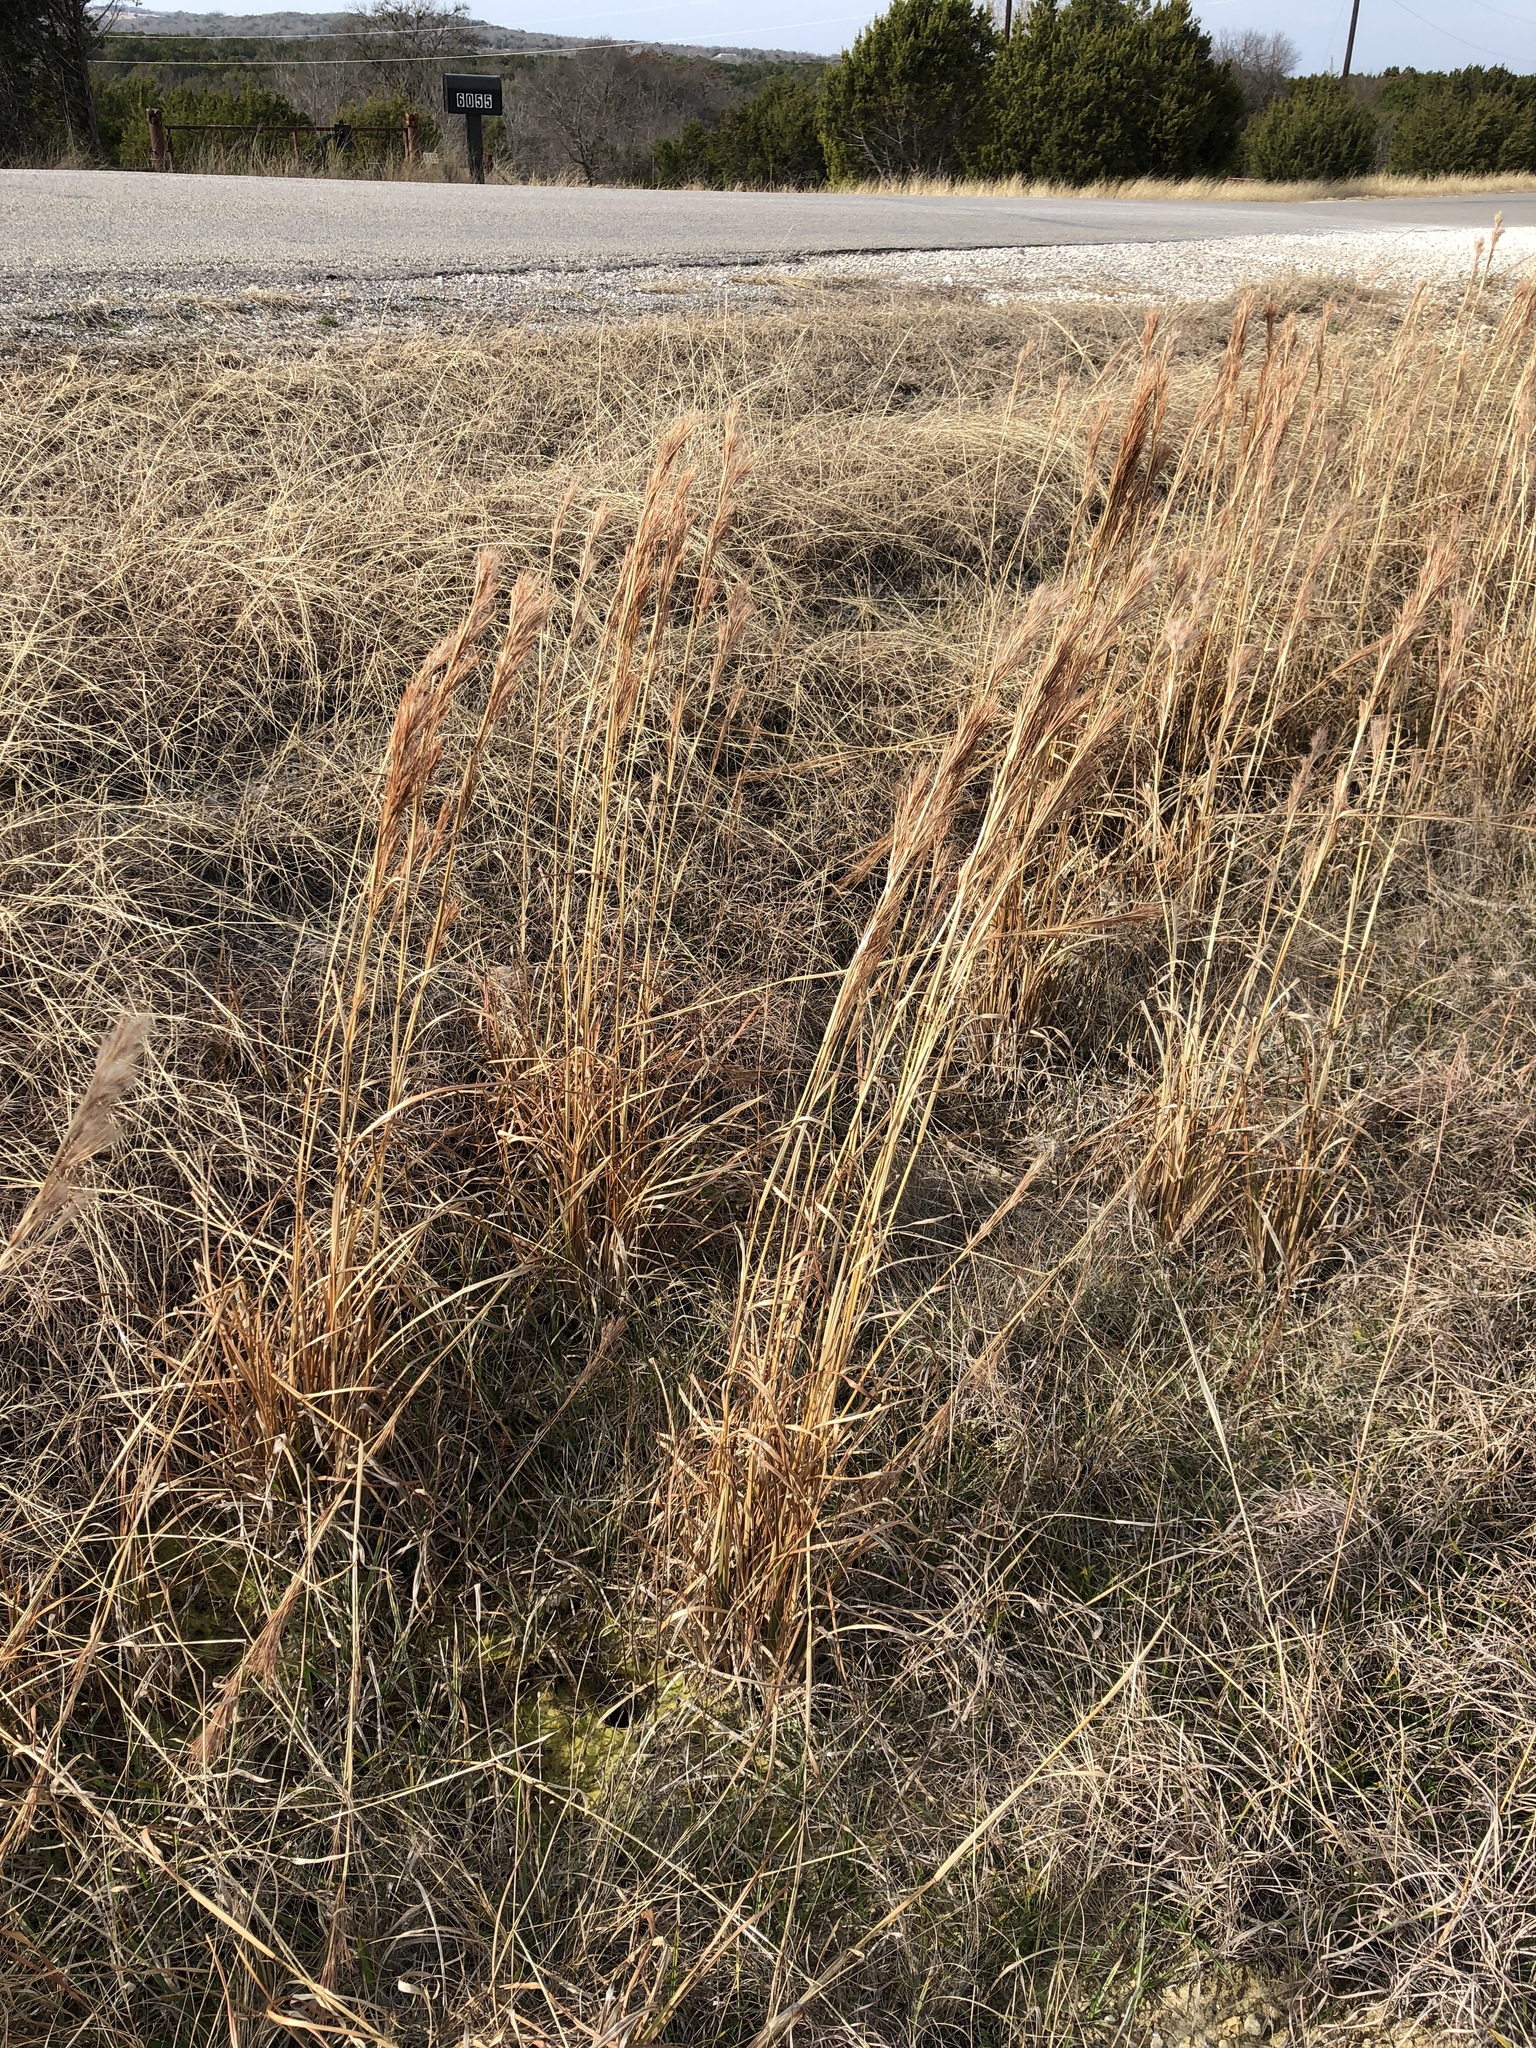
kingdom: Plantae
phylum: Tracheophyta
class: Liliopsida
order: Poales
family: Poaceae
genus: Andropogon
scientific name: Andropogon tenuispatheus
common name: Bushy bluestem
